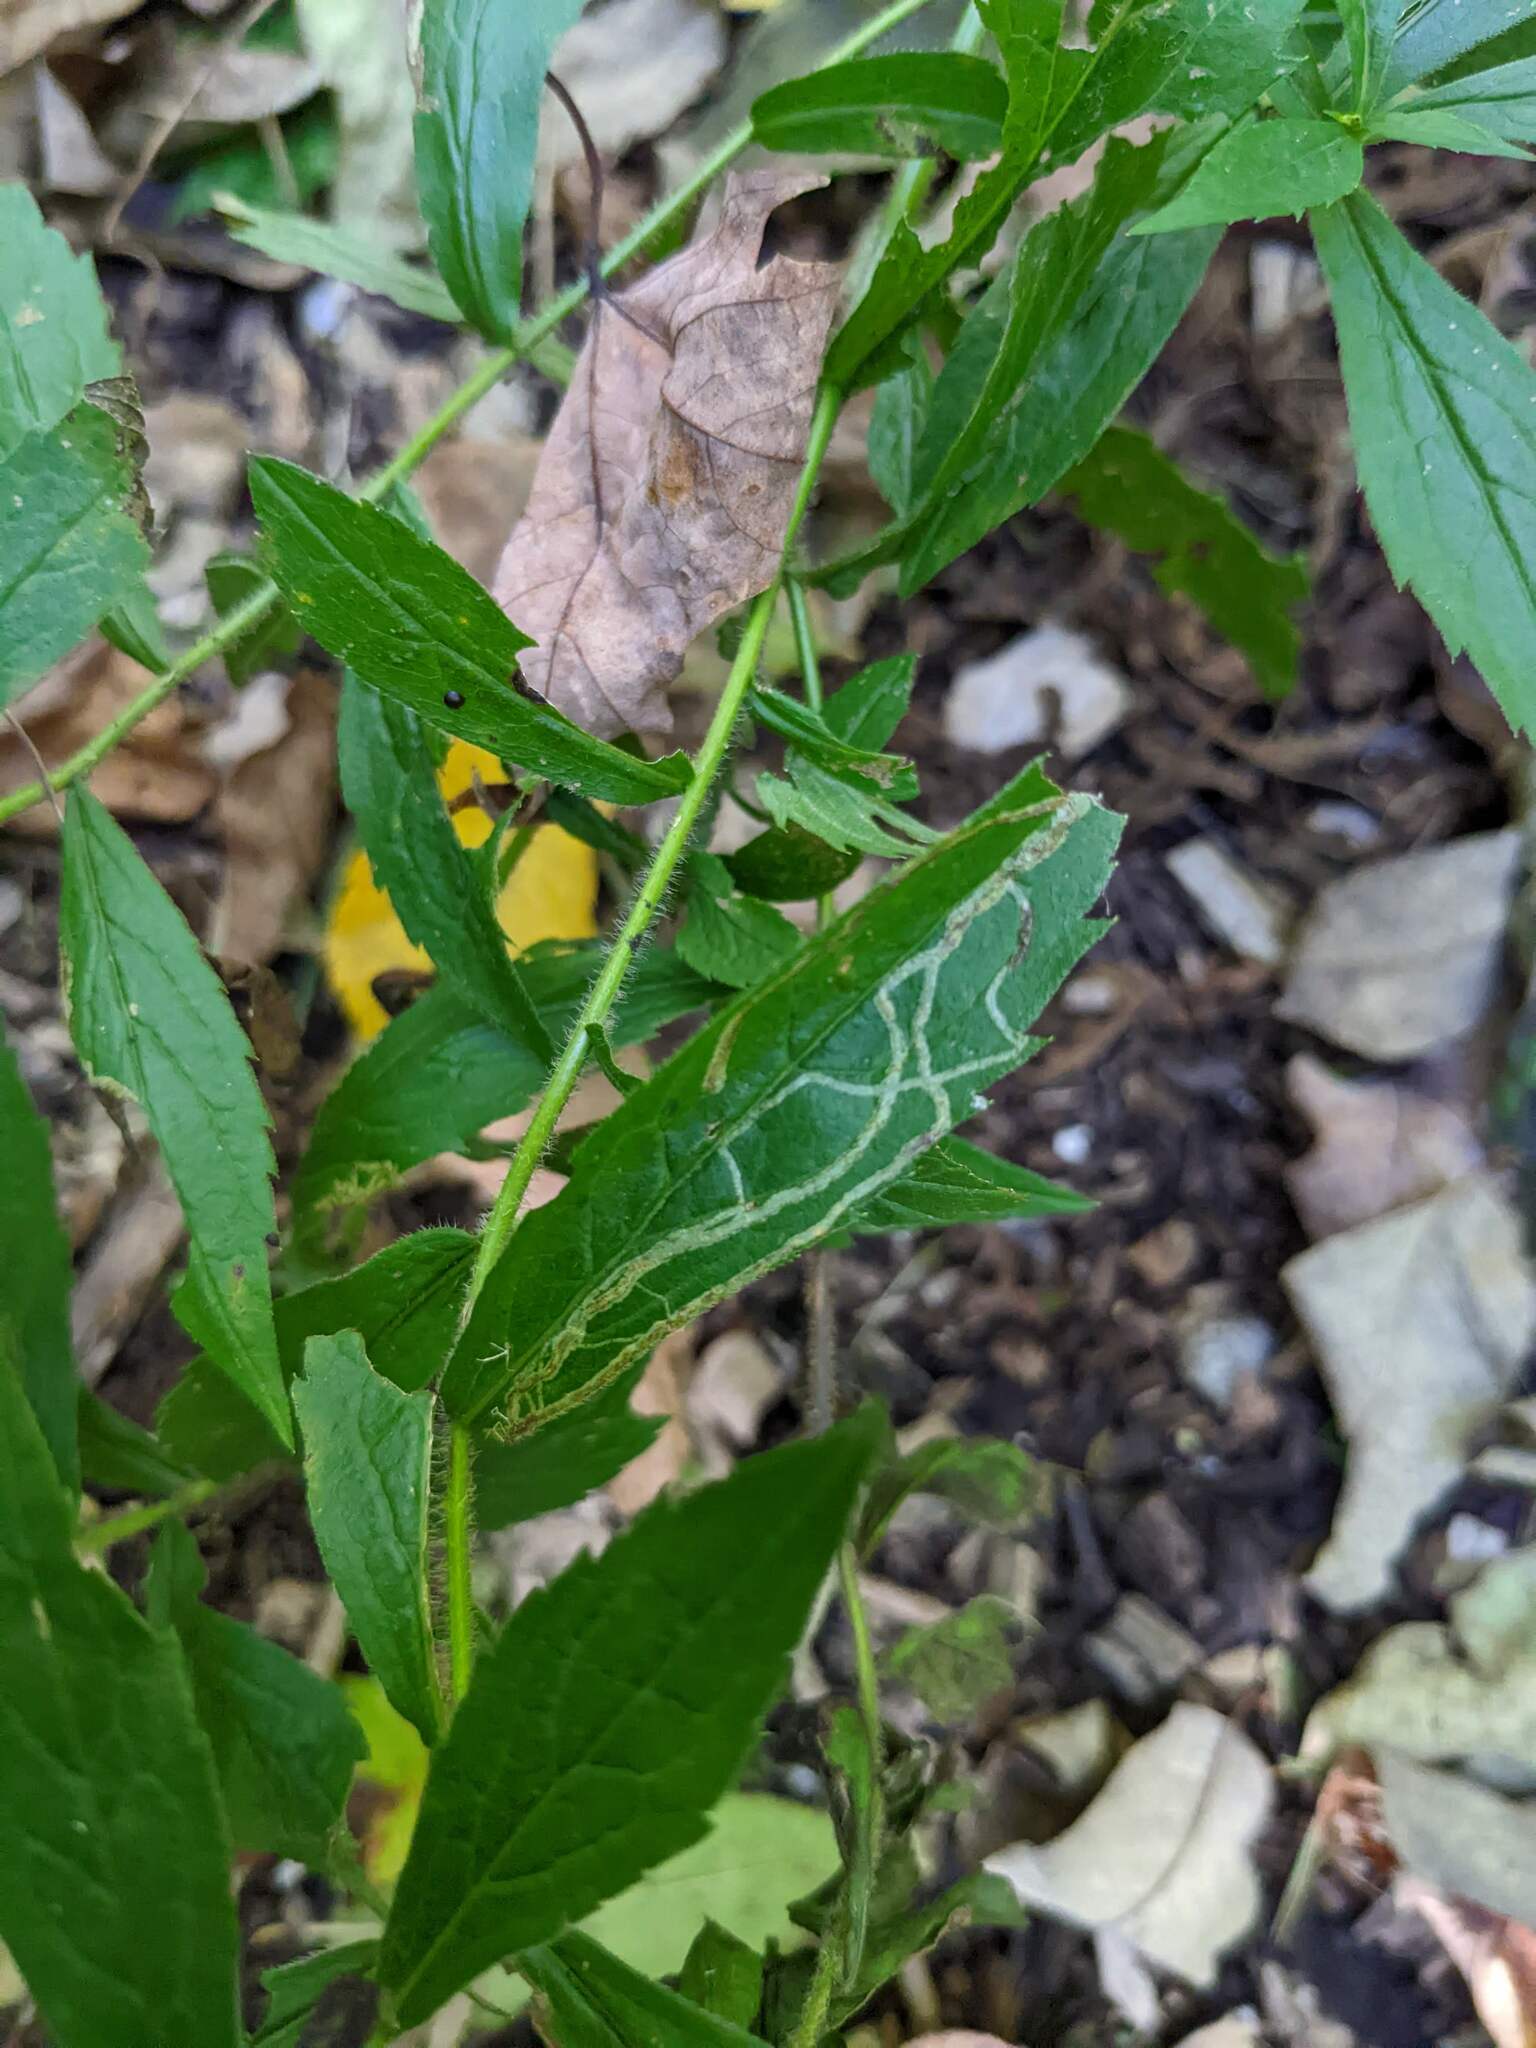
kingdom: Plantae
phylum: Tracheophyta
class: Magnoliopsida
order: Asterales
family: Asteraceae
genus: Solidago
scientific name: Solidago rugosa
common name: Rough-stemmed goldenrod
